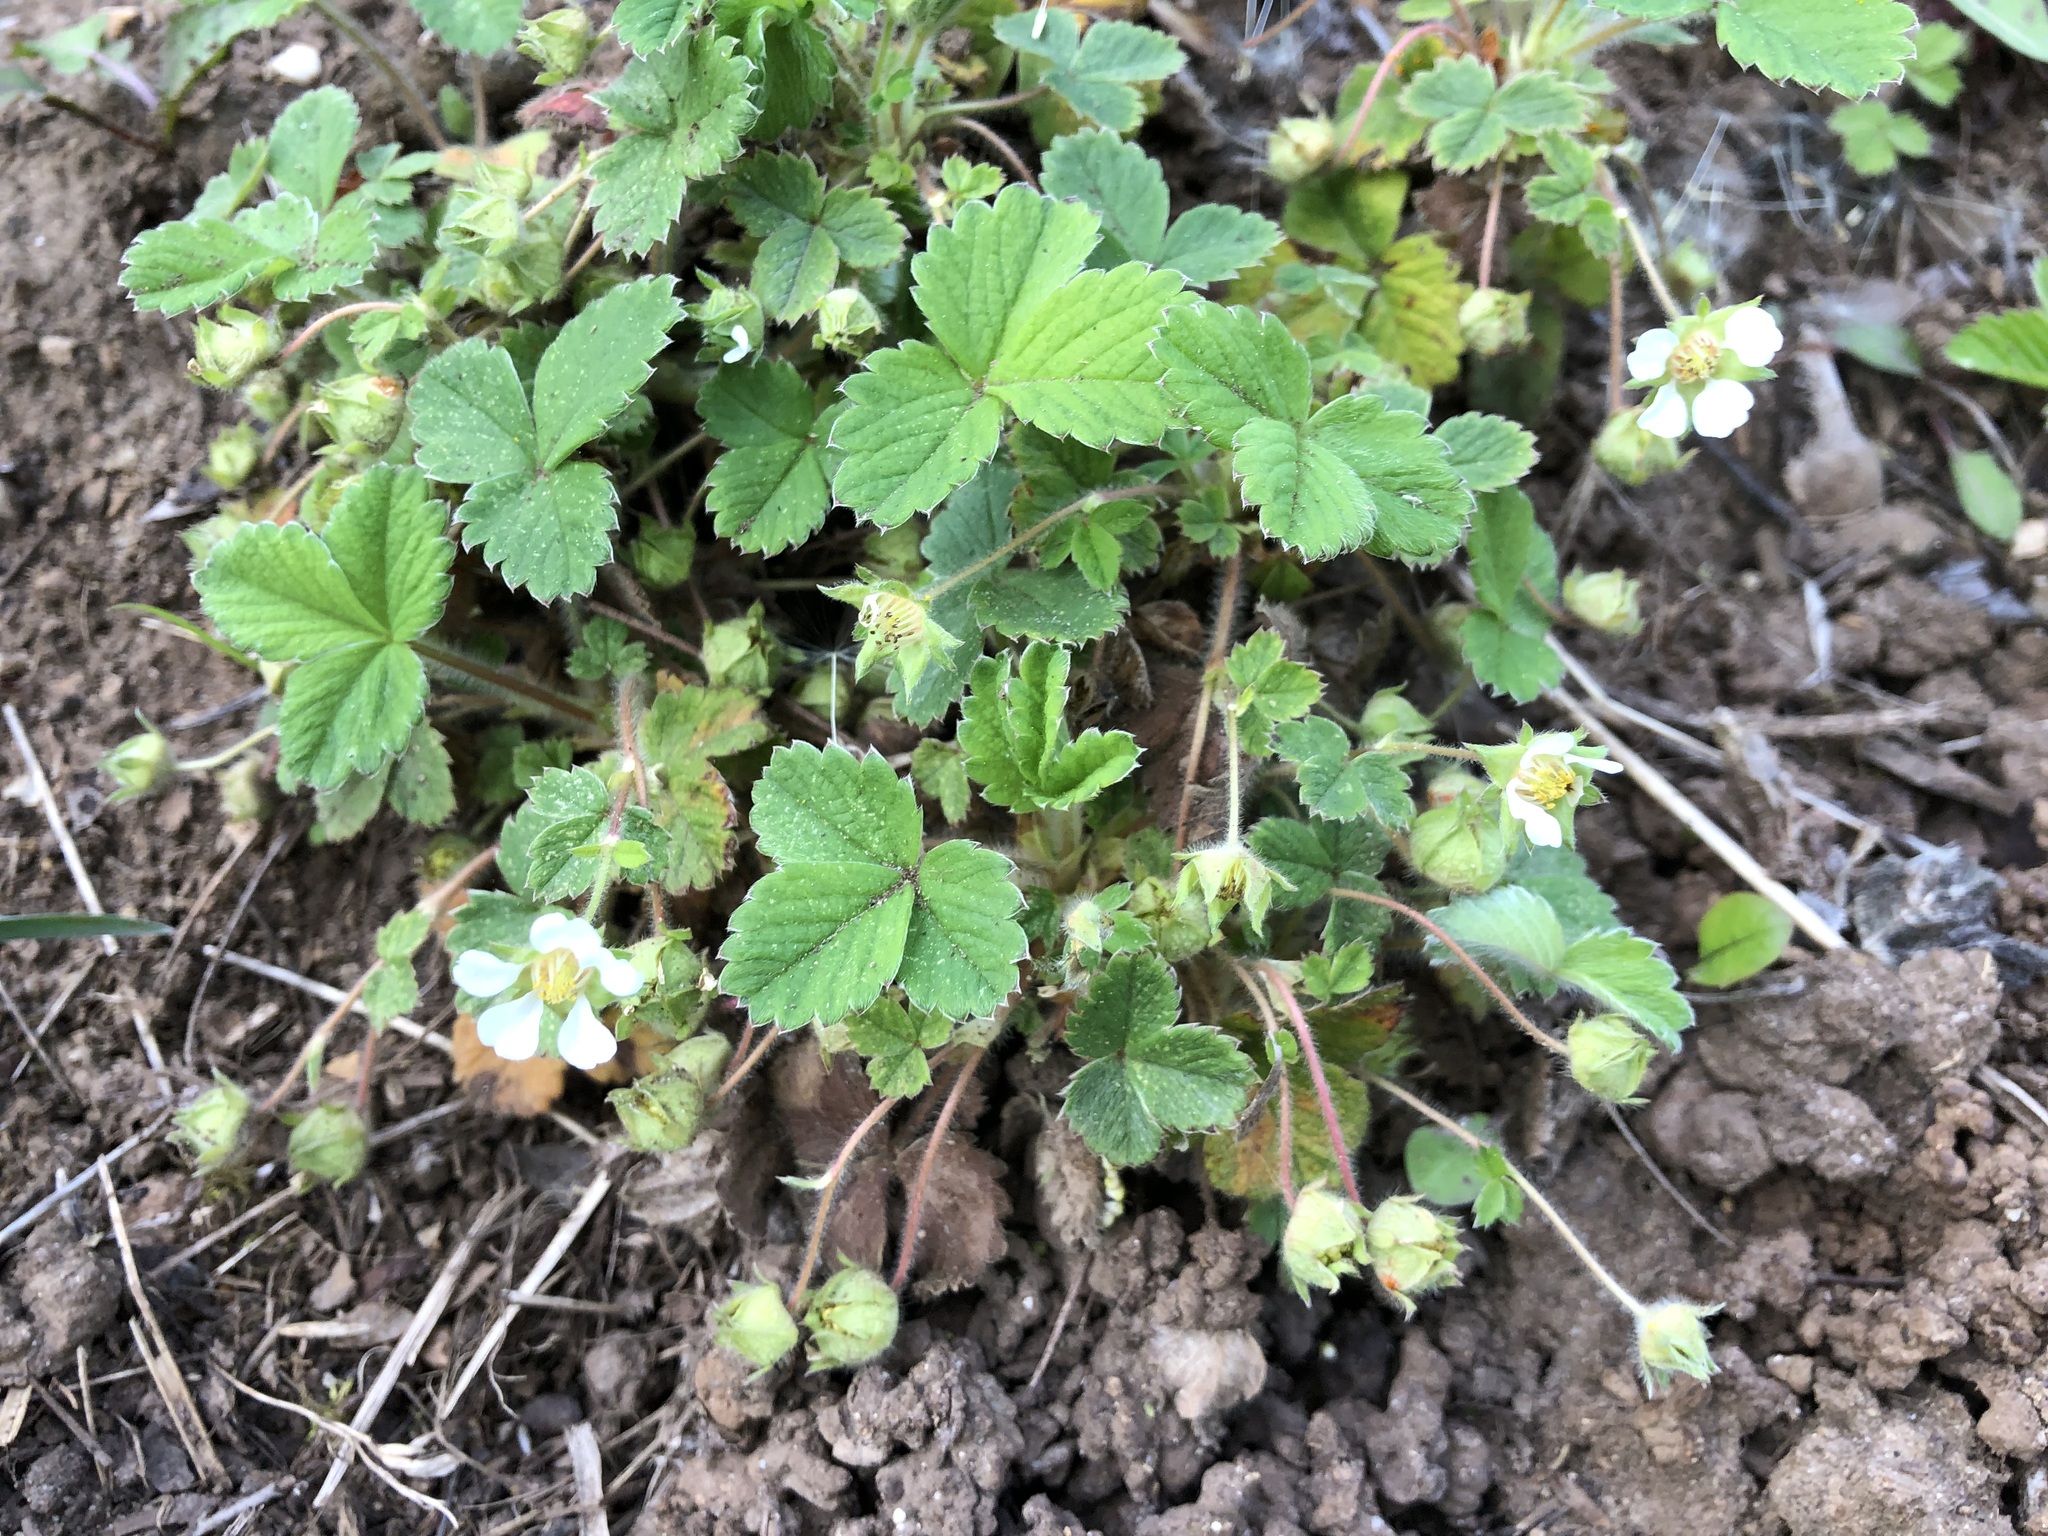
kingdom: Plantae
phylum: Tracheophyta
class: Magnoliopsida
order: Rosales
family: Rosaceae
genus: Potentilla
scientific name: Potentilla sterilis
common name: Barren strawberry
